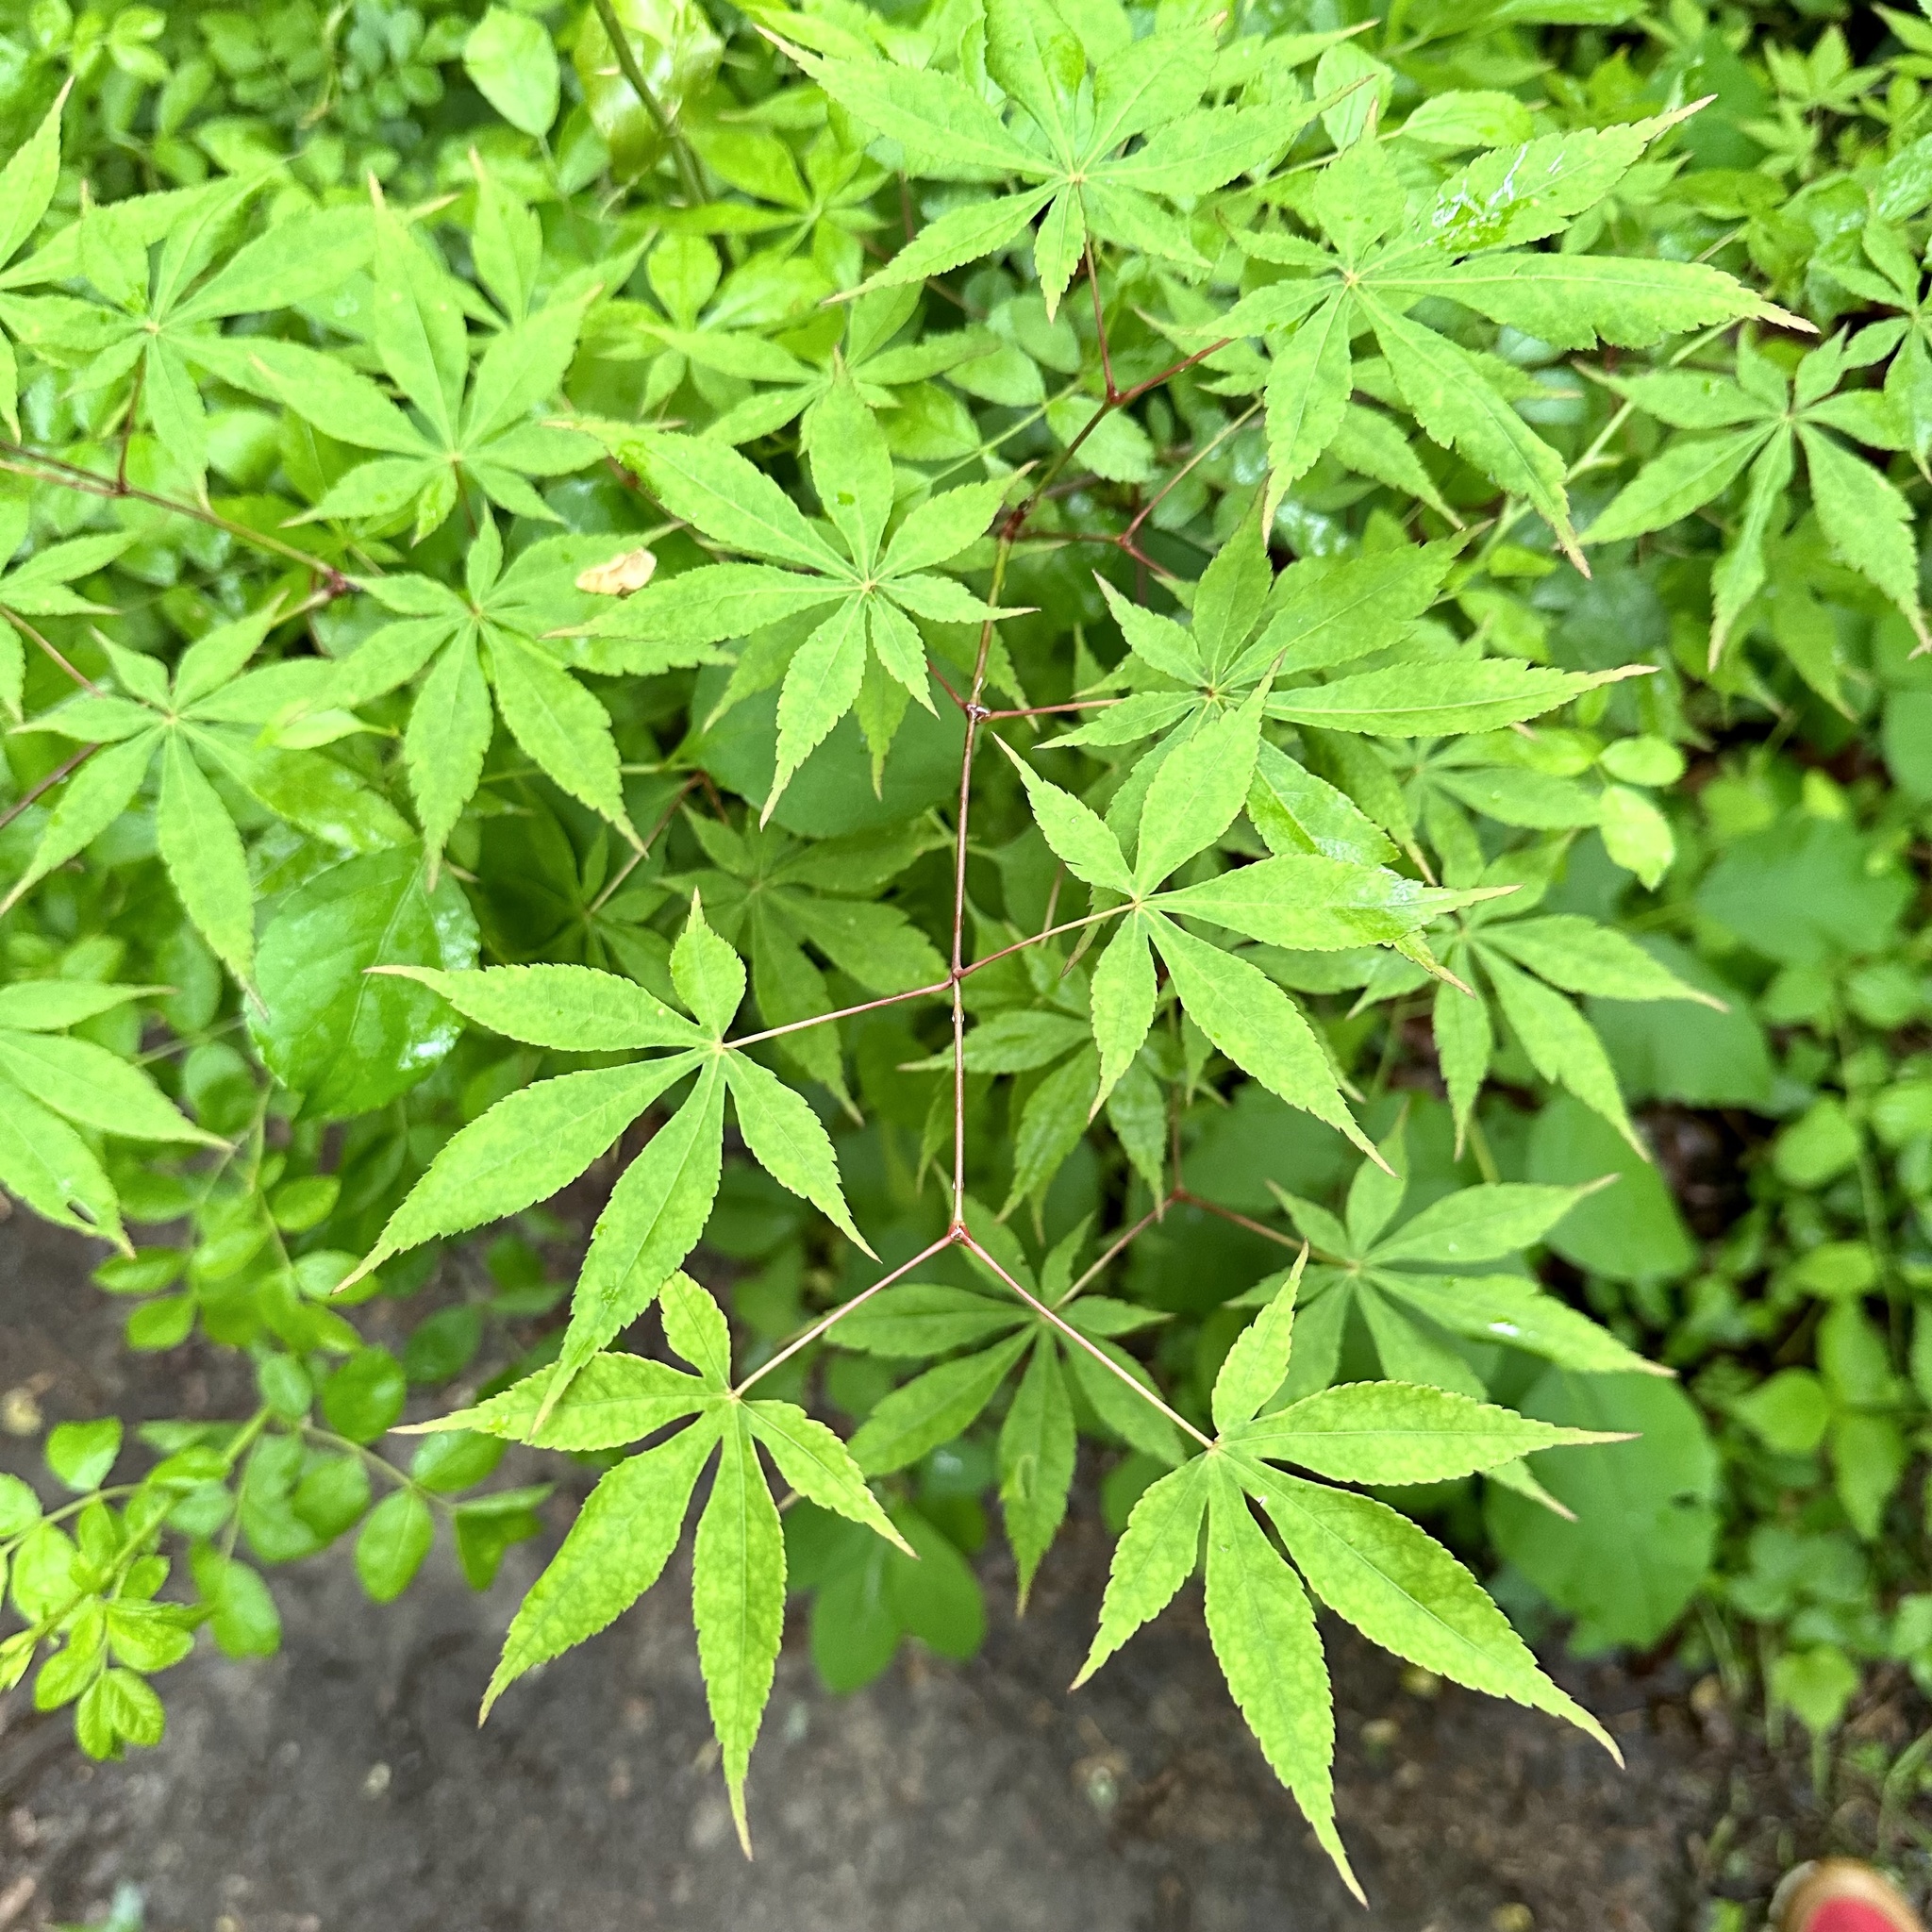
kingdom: Plantae
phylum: Tracheophyta
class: Magnoliopsida
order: Sapindales
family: Sapindaceae
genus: Acer
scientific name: Acer palmatum
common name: Japanese maple
